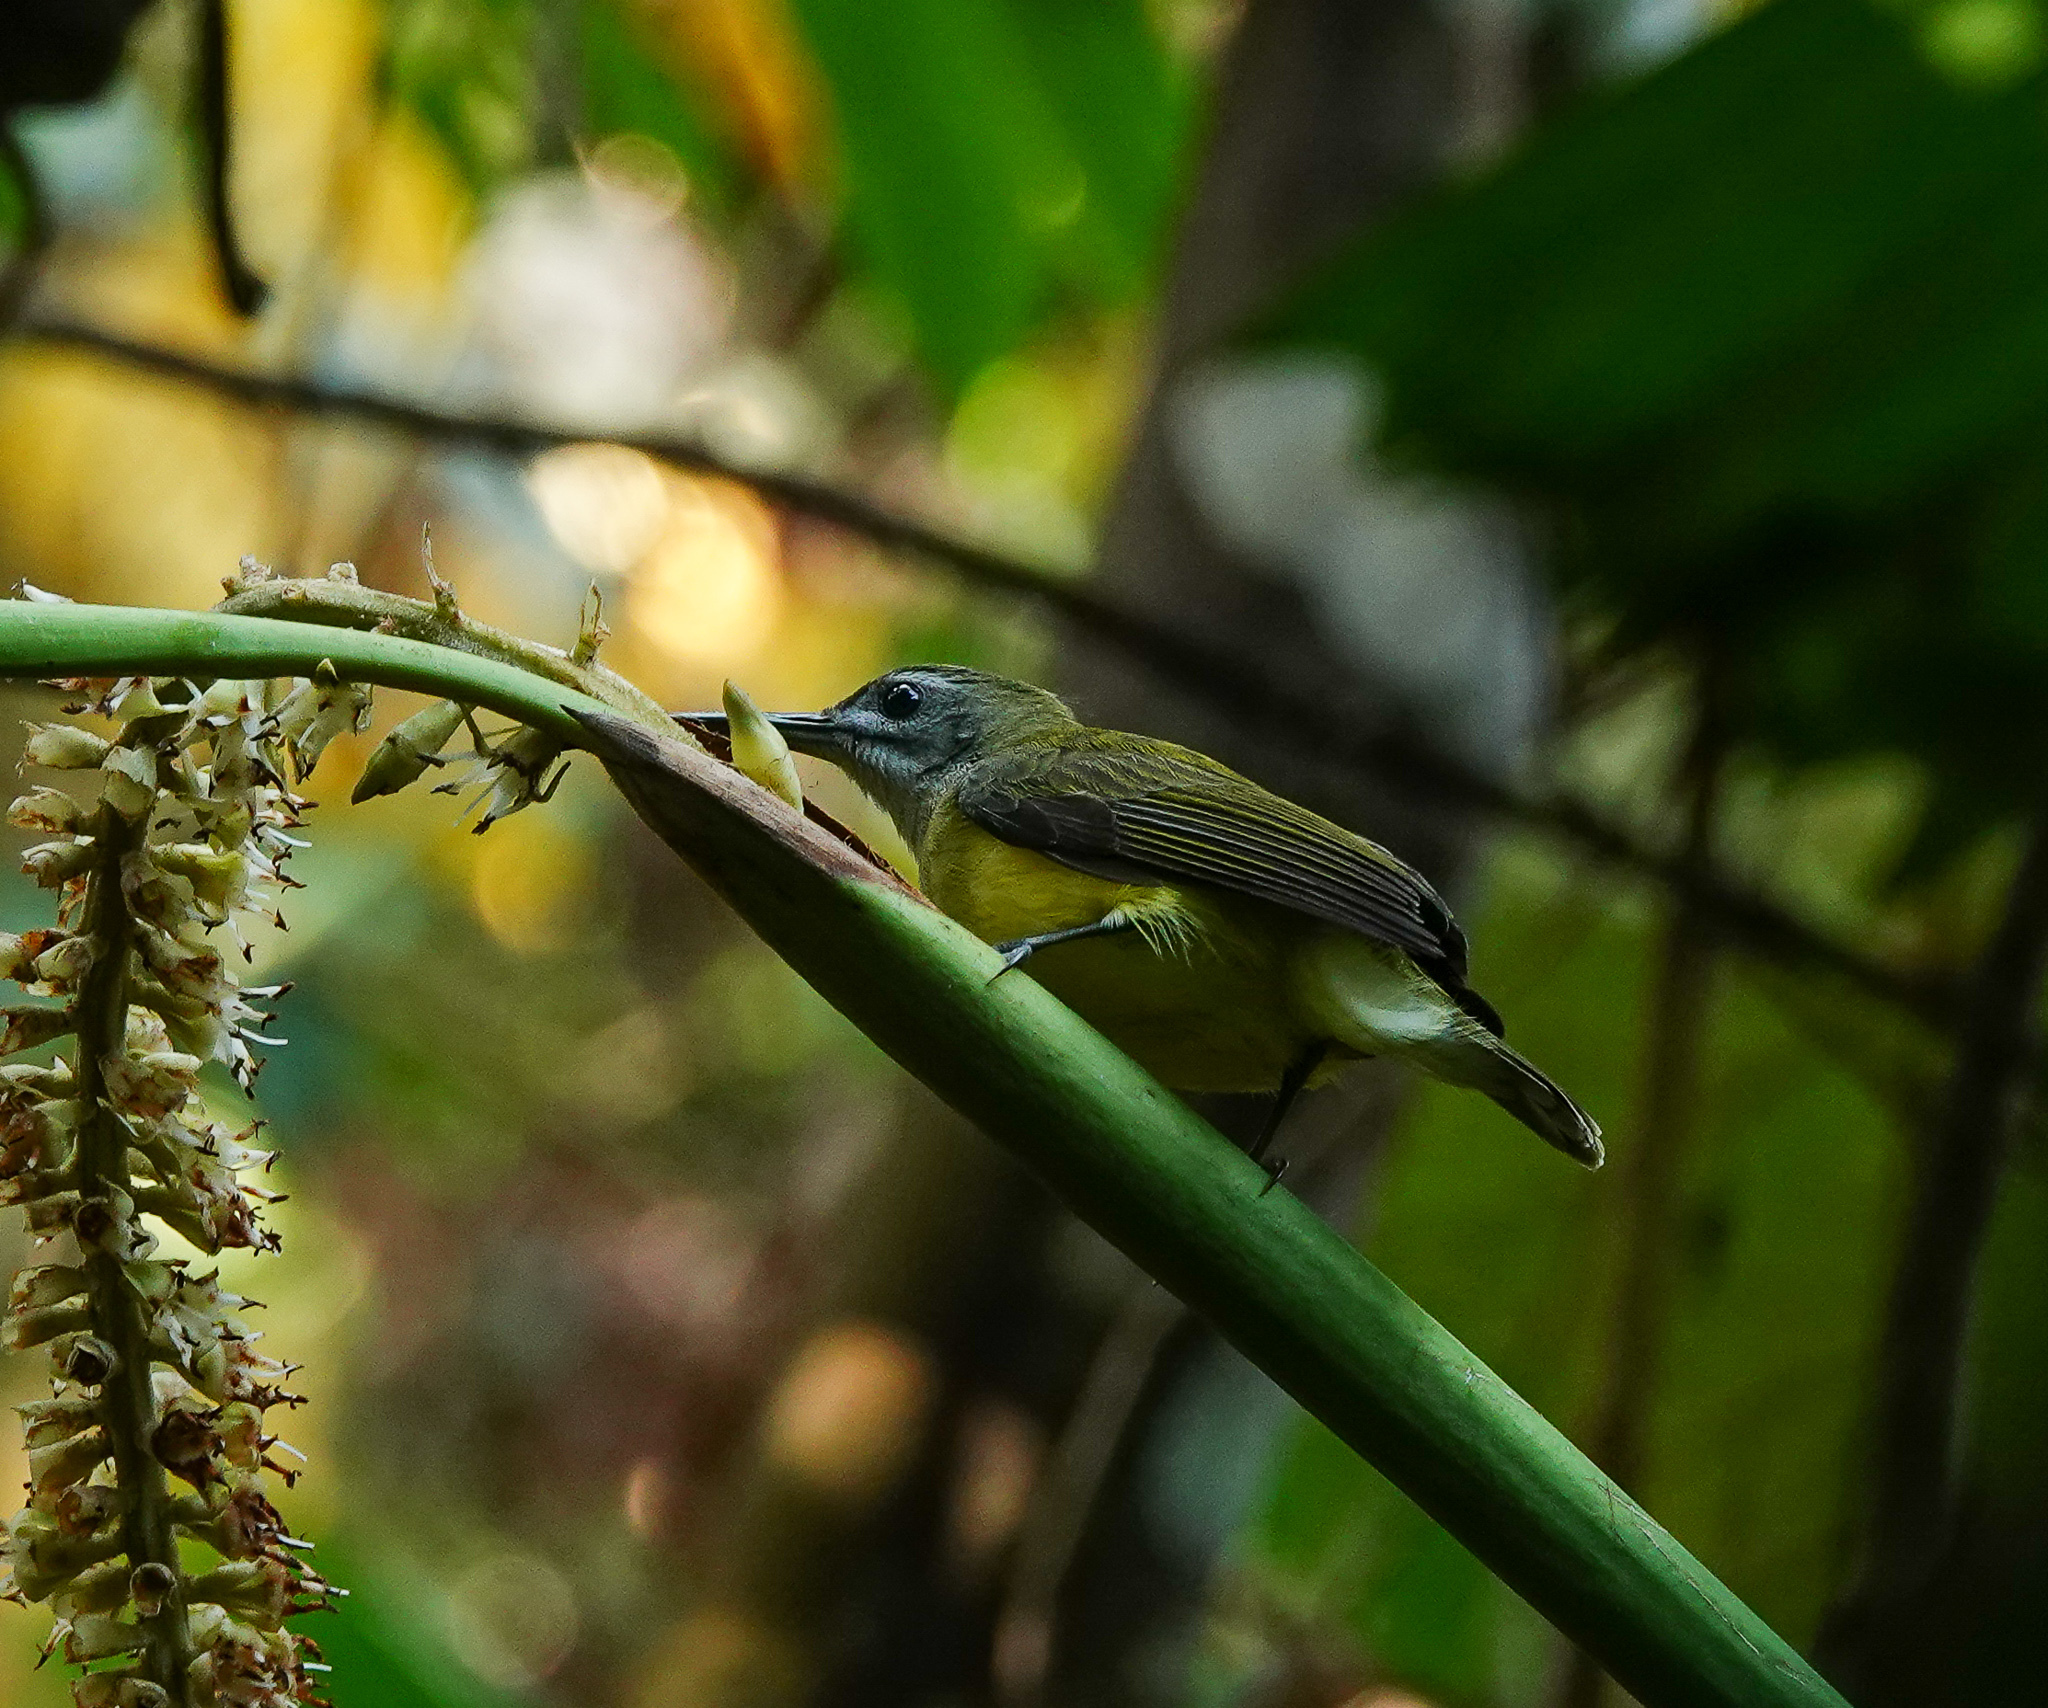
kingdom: Animalia
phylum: Chordata
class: Aves
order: Passeriformes
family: Nectariniidae
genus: Arachnothera
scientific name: Arachnothera longirostra
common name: Little spiderhunter
